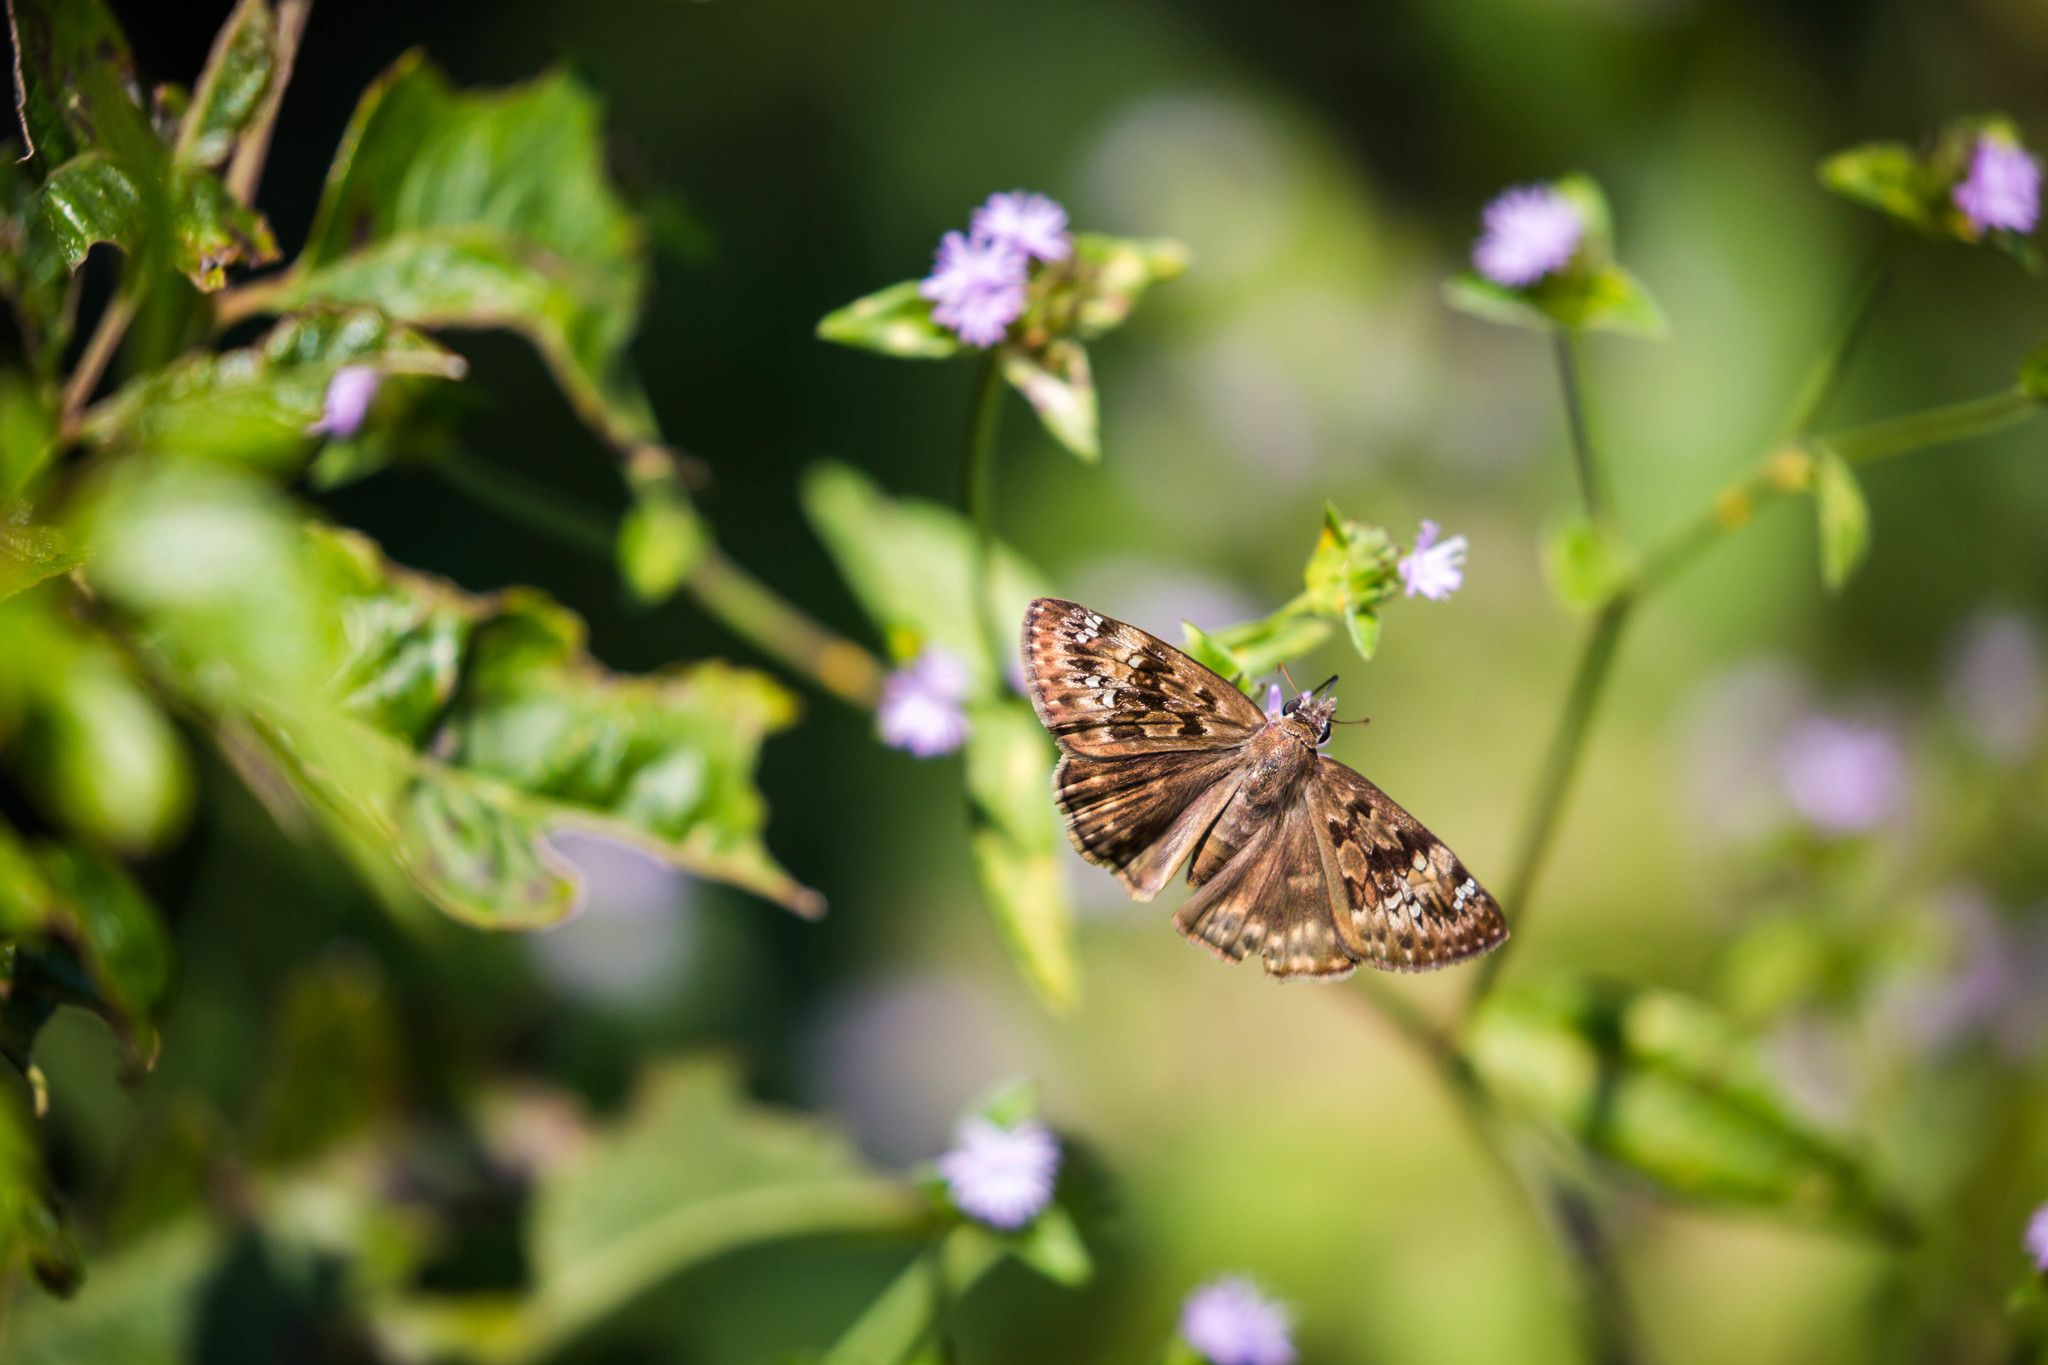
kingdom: Animalia
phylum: Arthropoda
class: Insecta
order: Lepidoptera
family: Hesperiidae
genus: Erynnis
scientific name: Erynnis horatius
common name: Horace's duskywing
